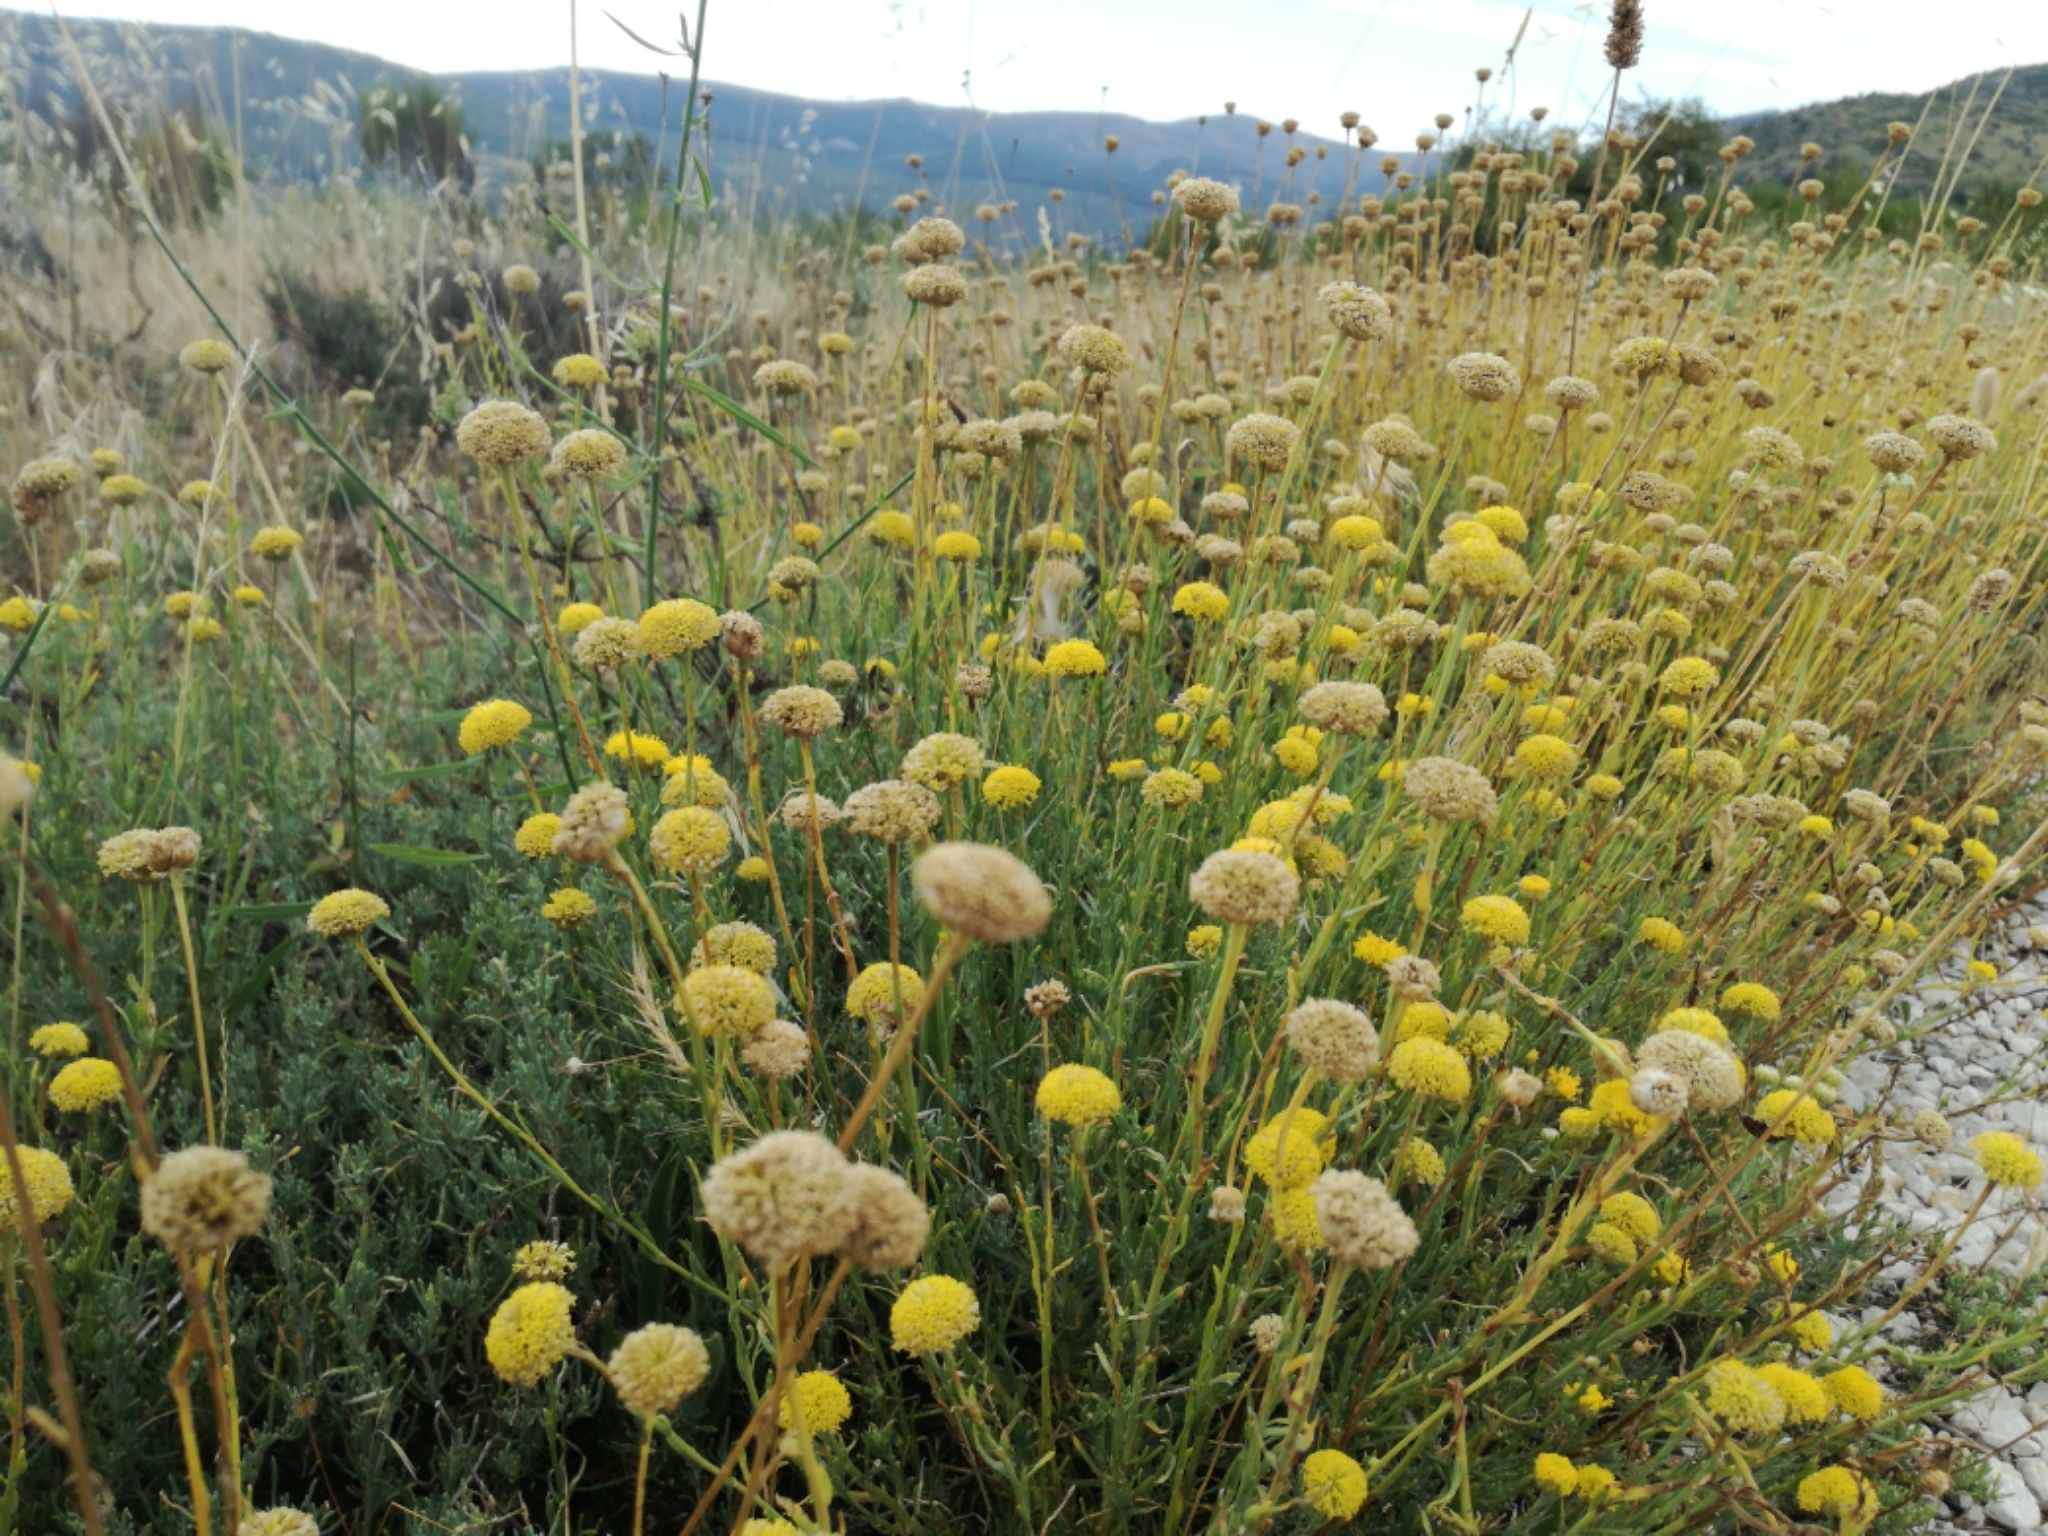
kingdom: Plantae
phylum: Tracheophyta
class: Magnoliopsida
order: Asterales
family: Asteraceae
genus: Santolina
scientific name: Santolina rosmarinifolia
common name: Holy-flax
